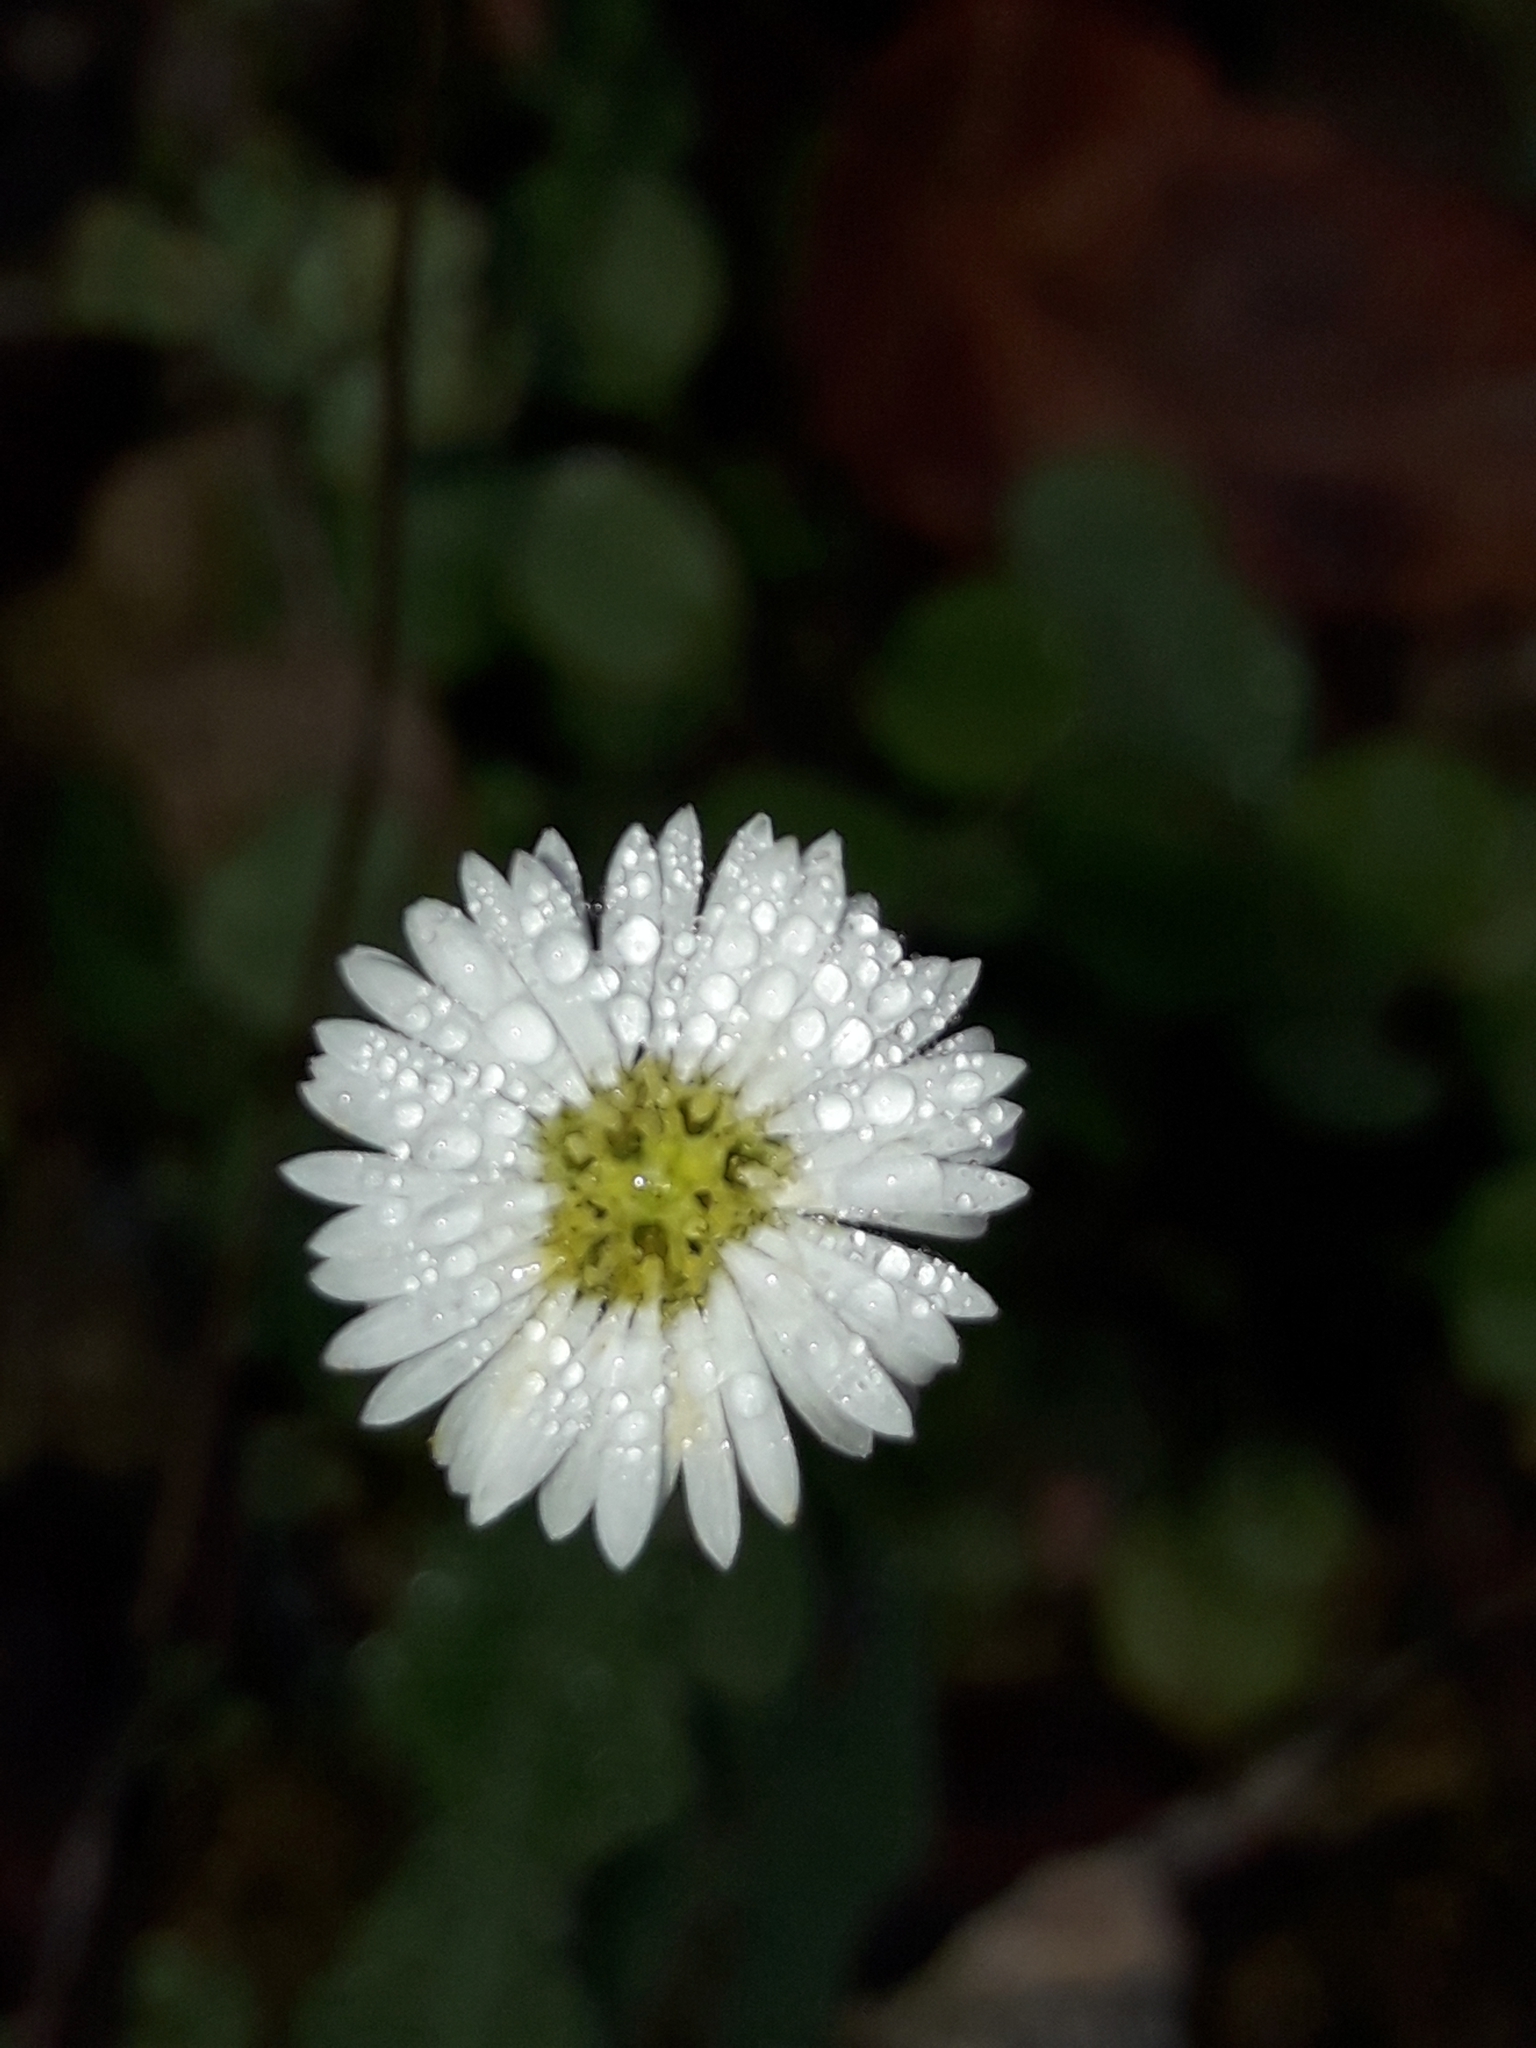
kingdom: Plantae
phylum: Tracheophyta
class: Magnoliopsida
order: Asterales
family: Asteraceae
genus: Lagenophora
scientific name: Lagenophora pumila
